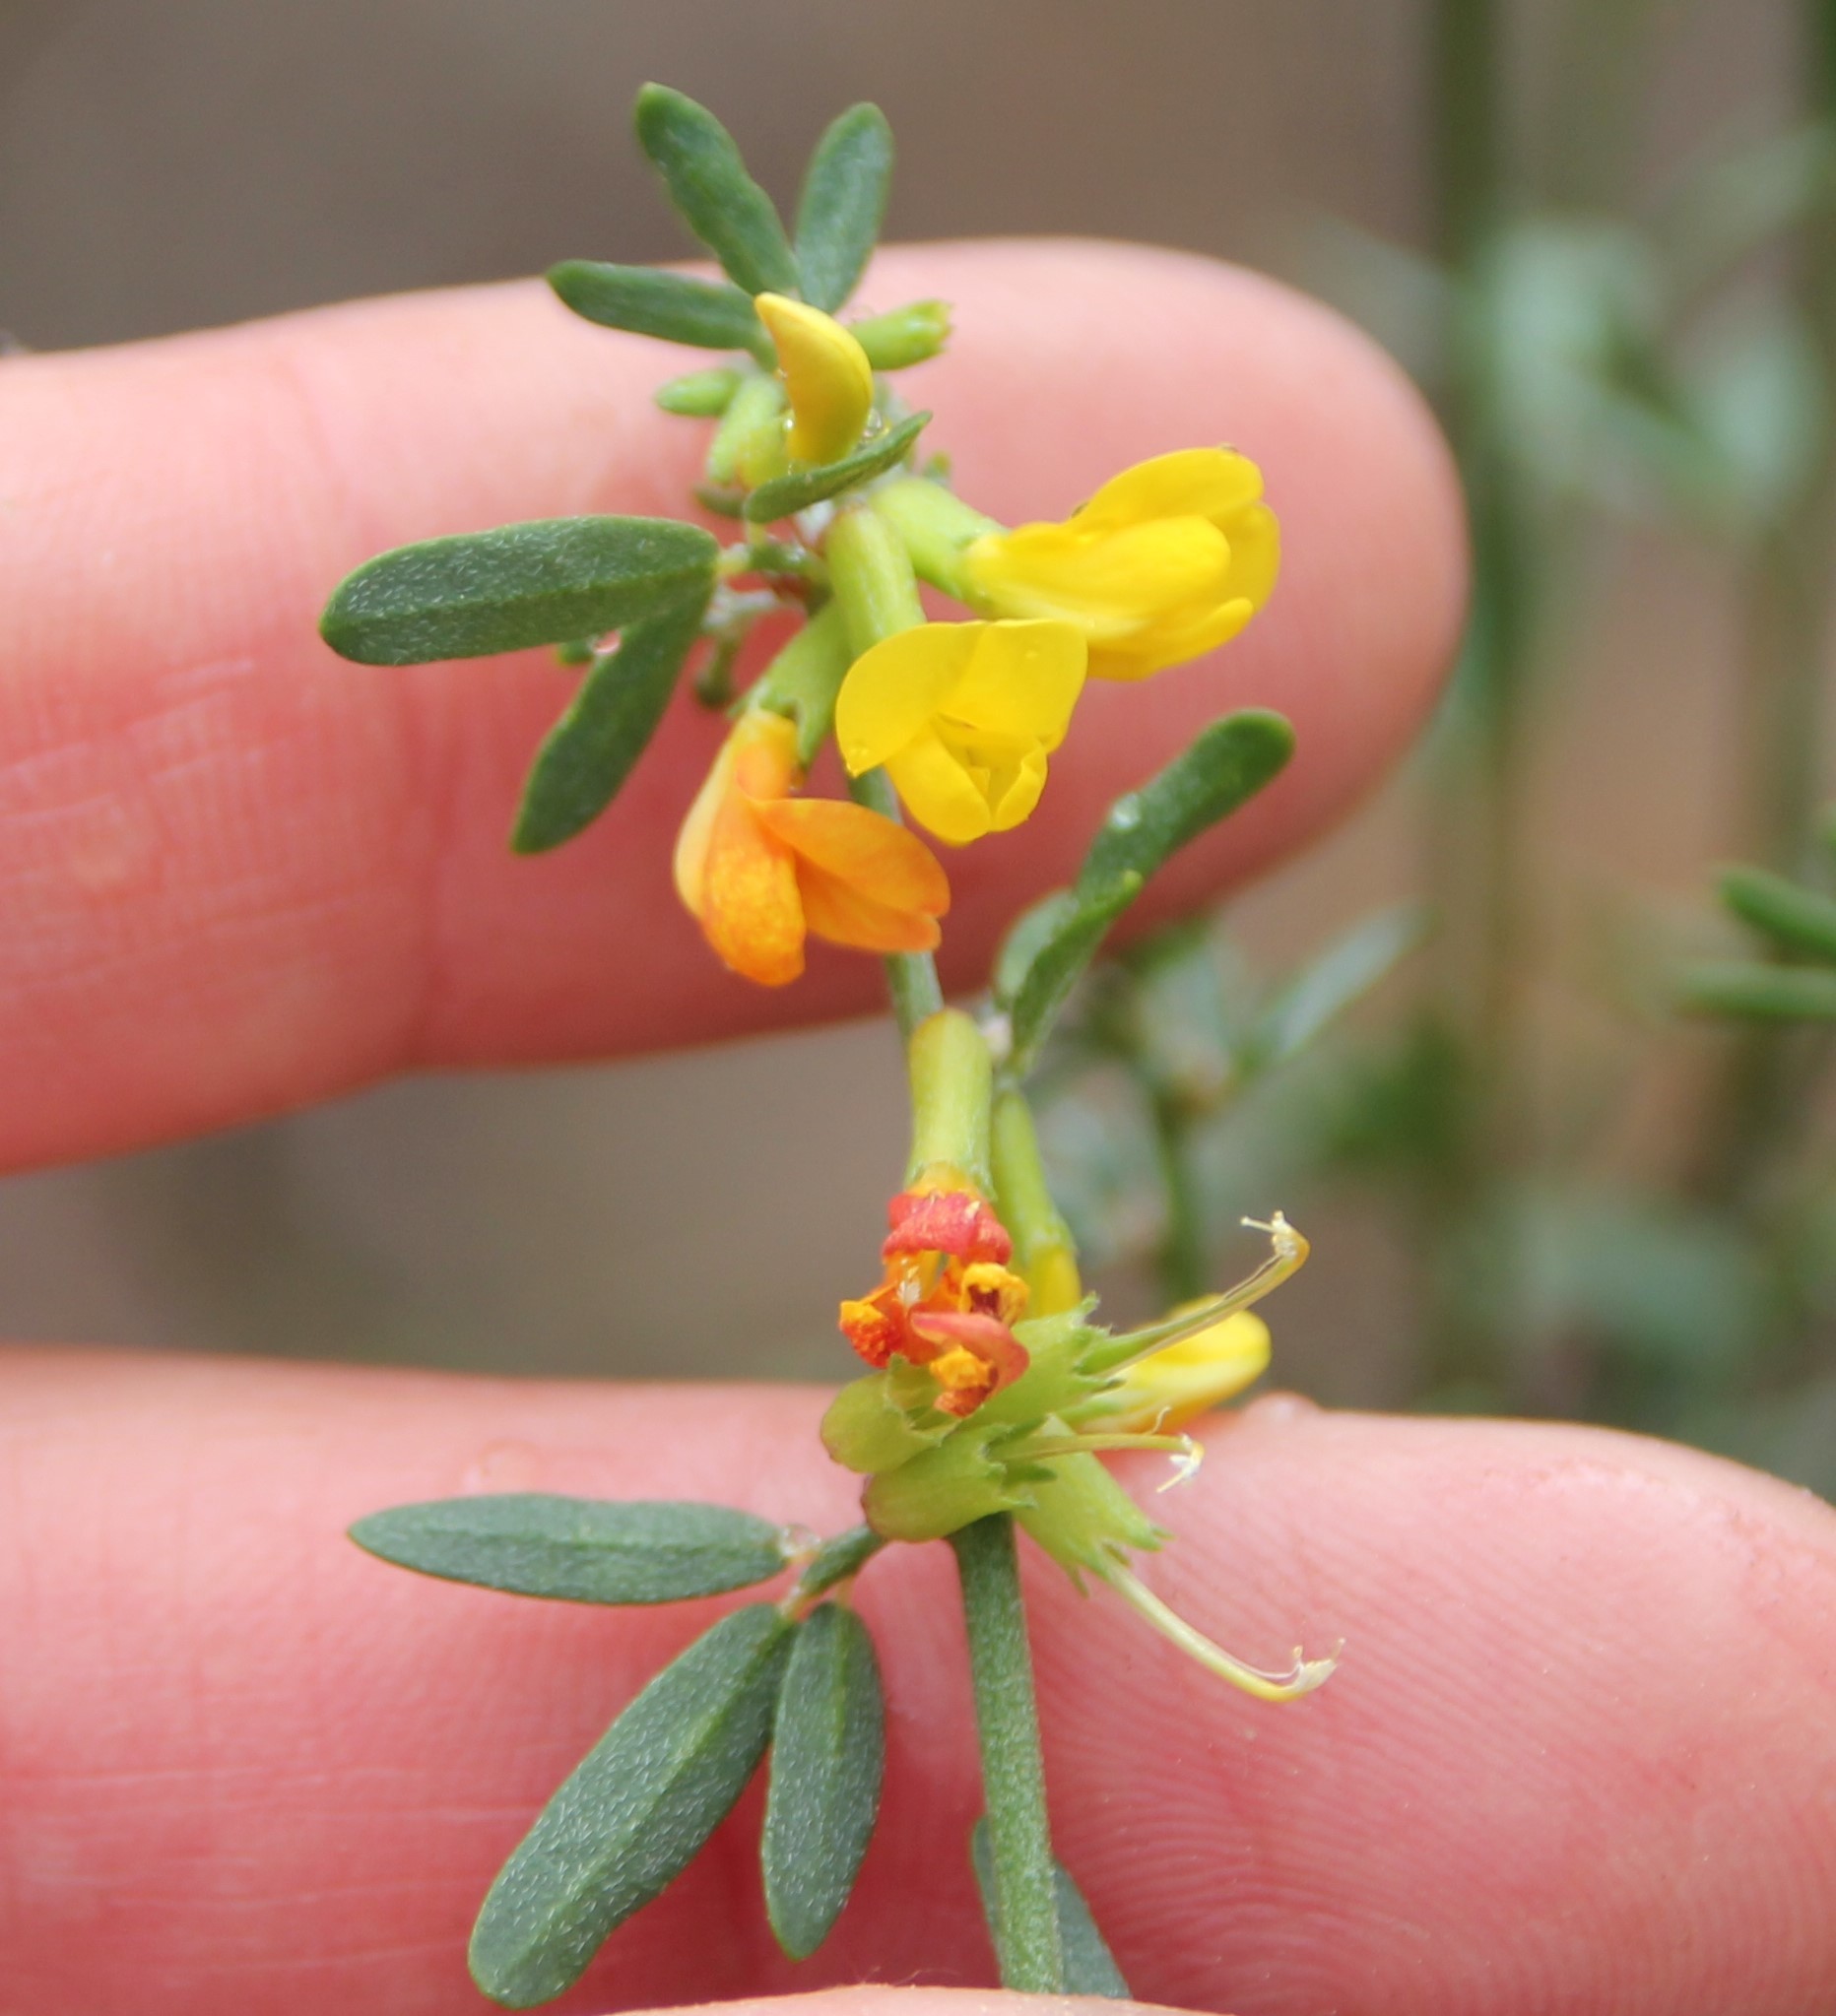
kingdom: Plantae
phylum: Tracheophyta
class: Magnoliopsida
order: Fabales
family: Fabaceae
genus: Acmispon
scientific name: Acmispon glaber
